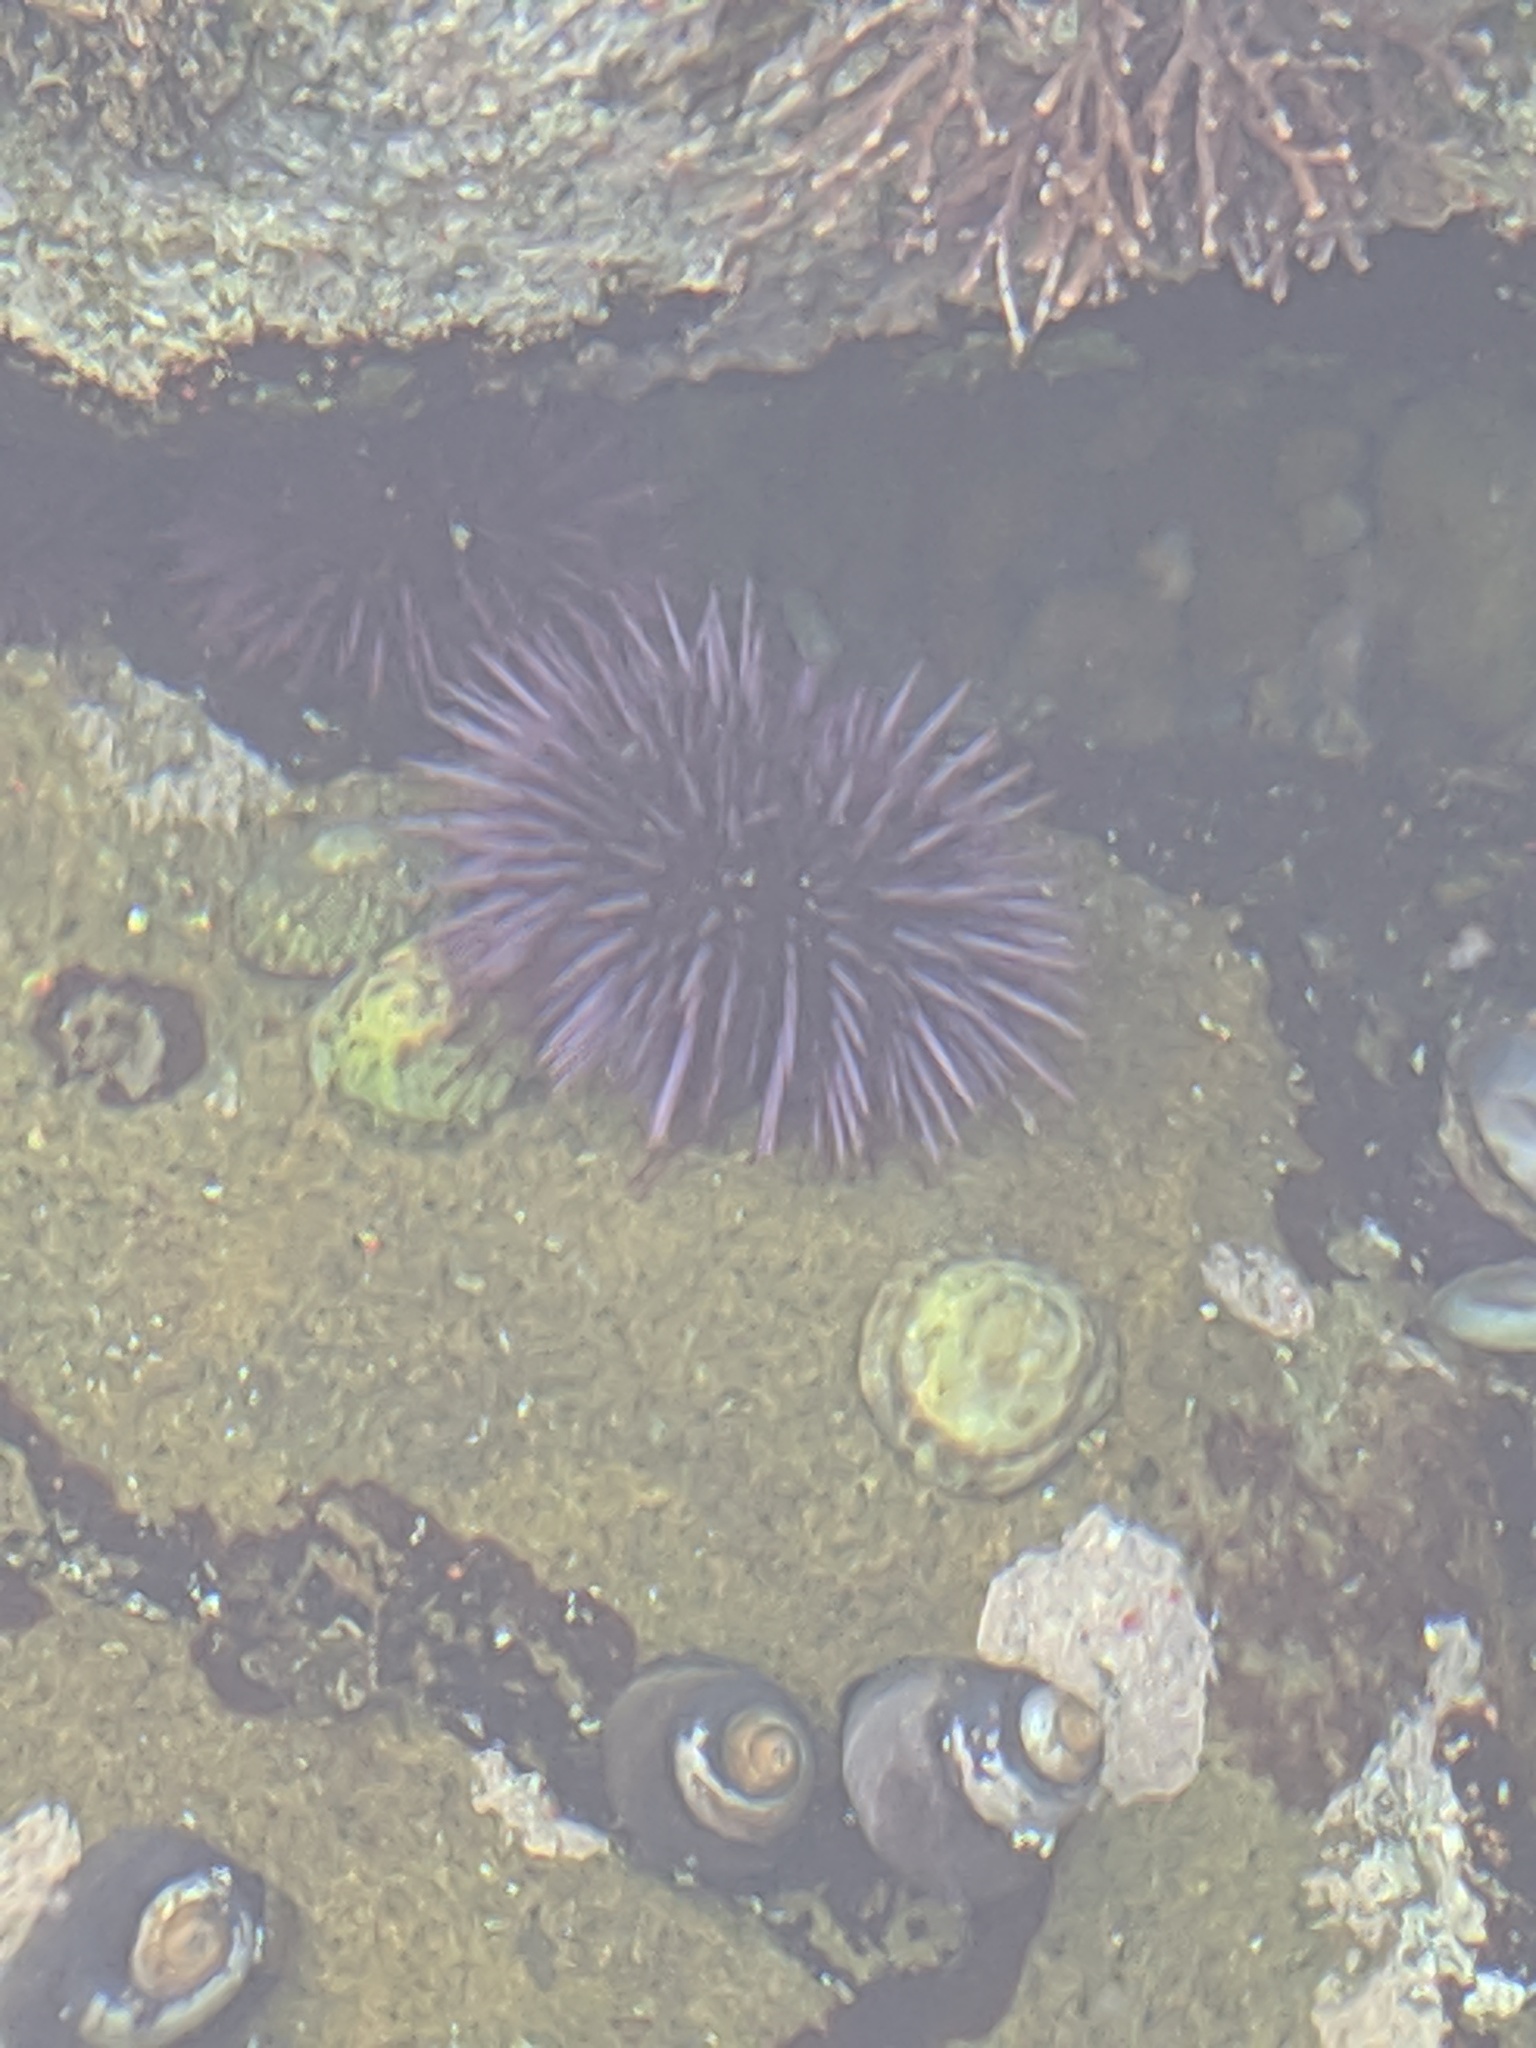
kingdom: Animalia
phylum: Echinodermata
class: Echinoidea
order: Camarodonta
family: Strongylocentrotidae
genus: Strongylocentrotus
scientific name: Strongylocentrotus purpuratus
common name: Purple sea urchin
